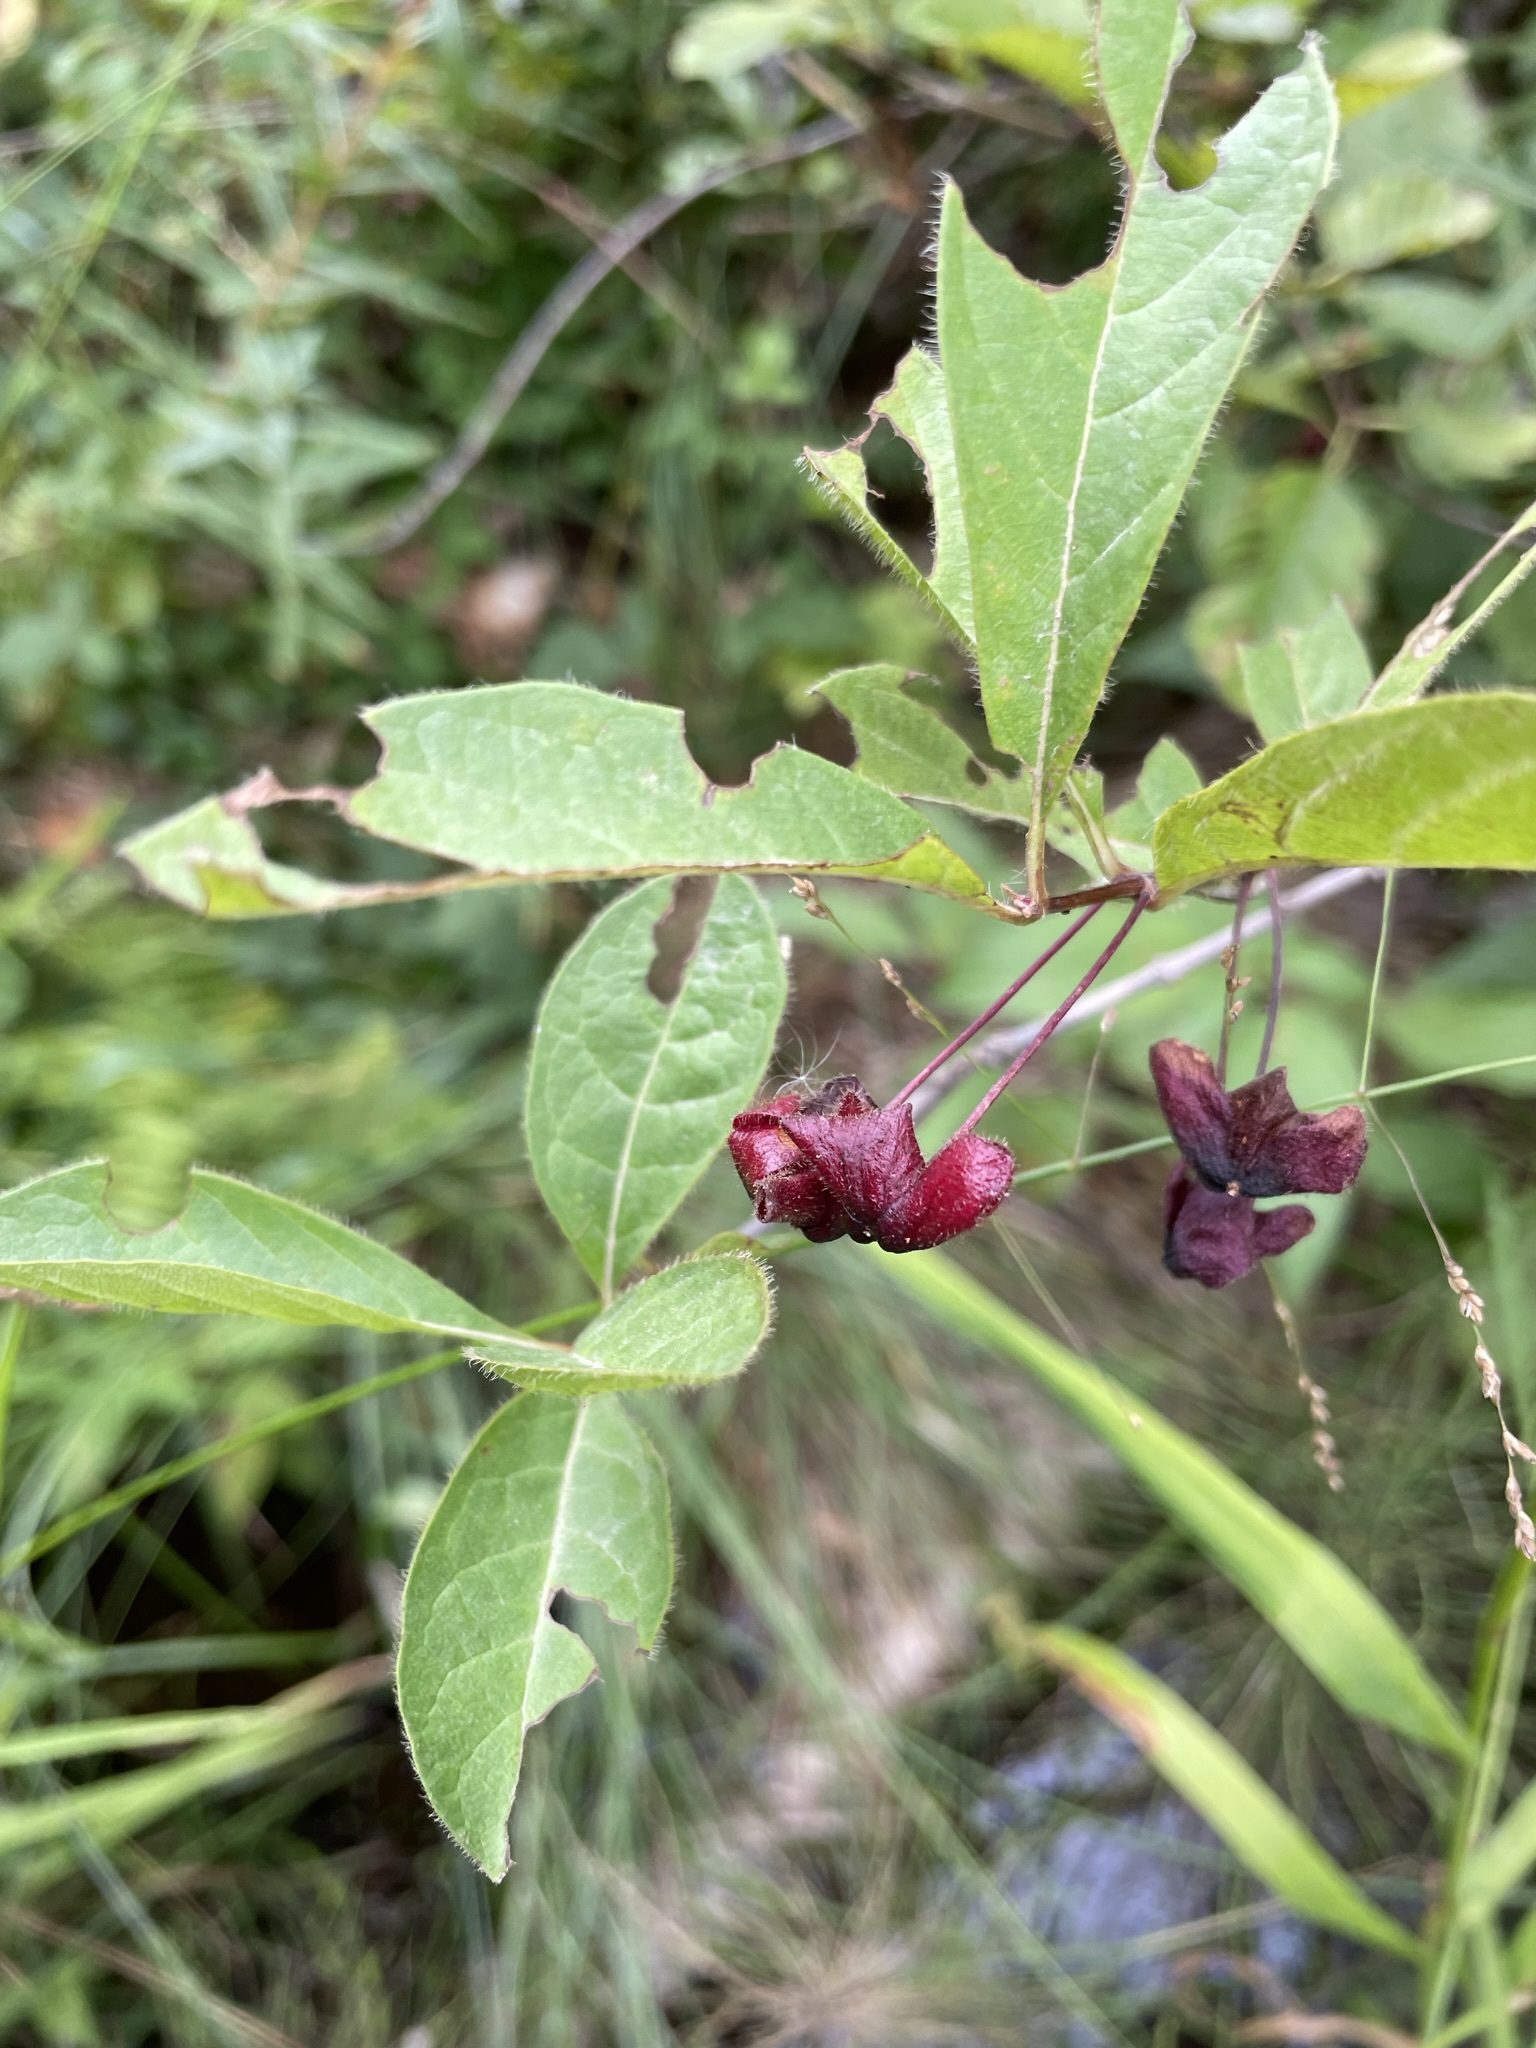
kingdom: Plantae
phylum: Tracheophyta
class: Magnoliopsida
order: Dipsacales
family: Caprifoliaceae
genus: Lonicera
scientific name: Lonicera involucrata
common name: Californian honeysuckle
